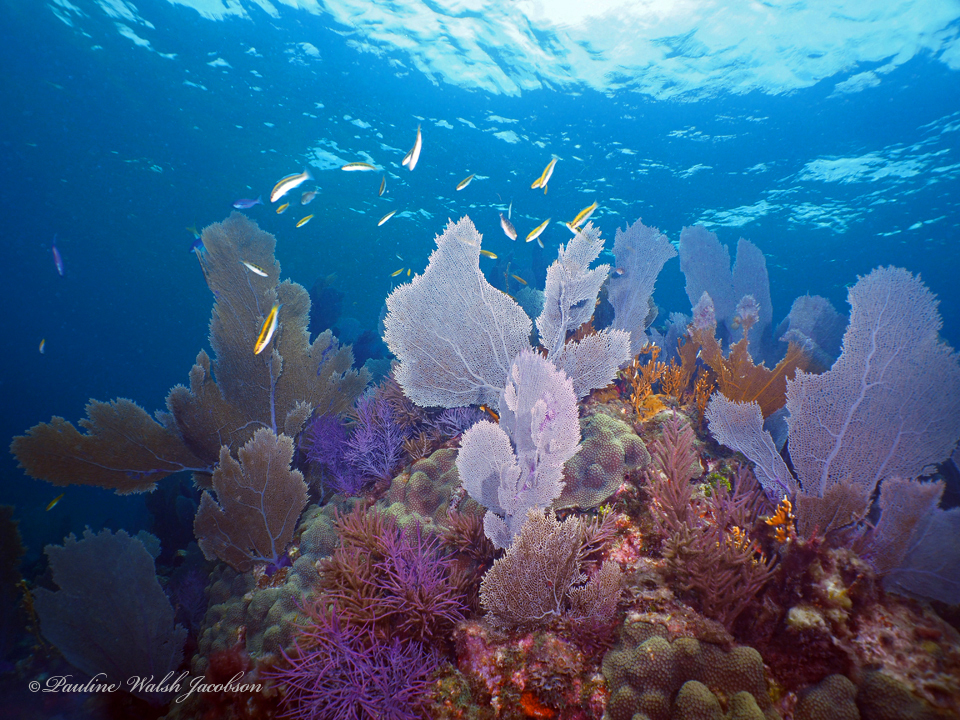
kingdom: Animalia
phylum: Chordata
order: Perciformes
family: Labridae
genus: Thalassoma
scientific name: Thalassoma bifasciatum
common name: Bluehead wrasse
